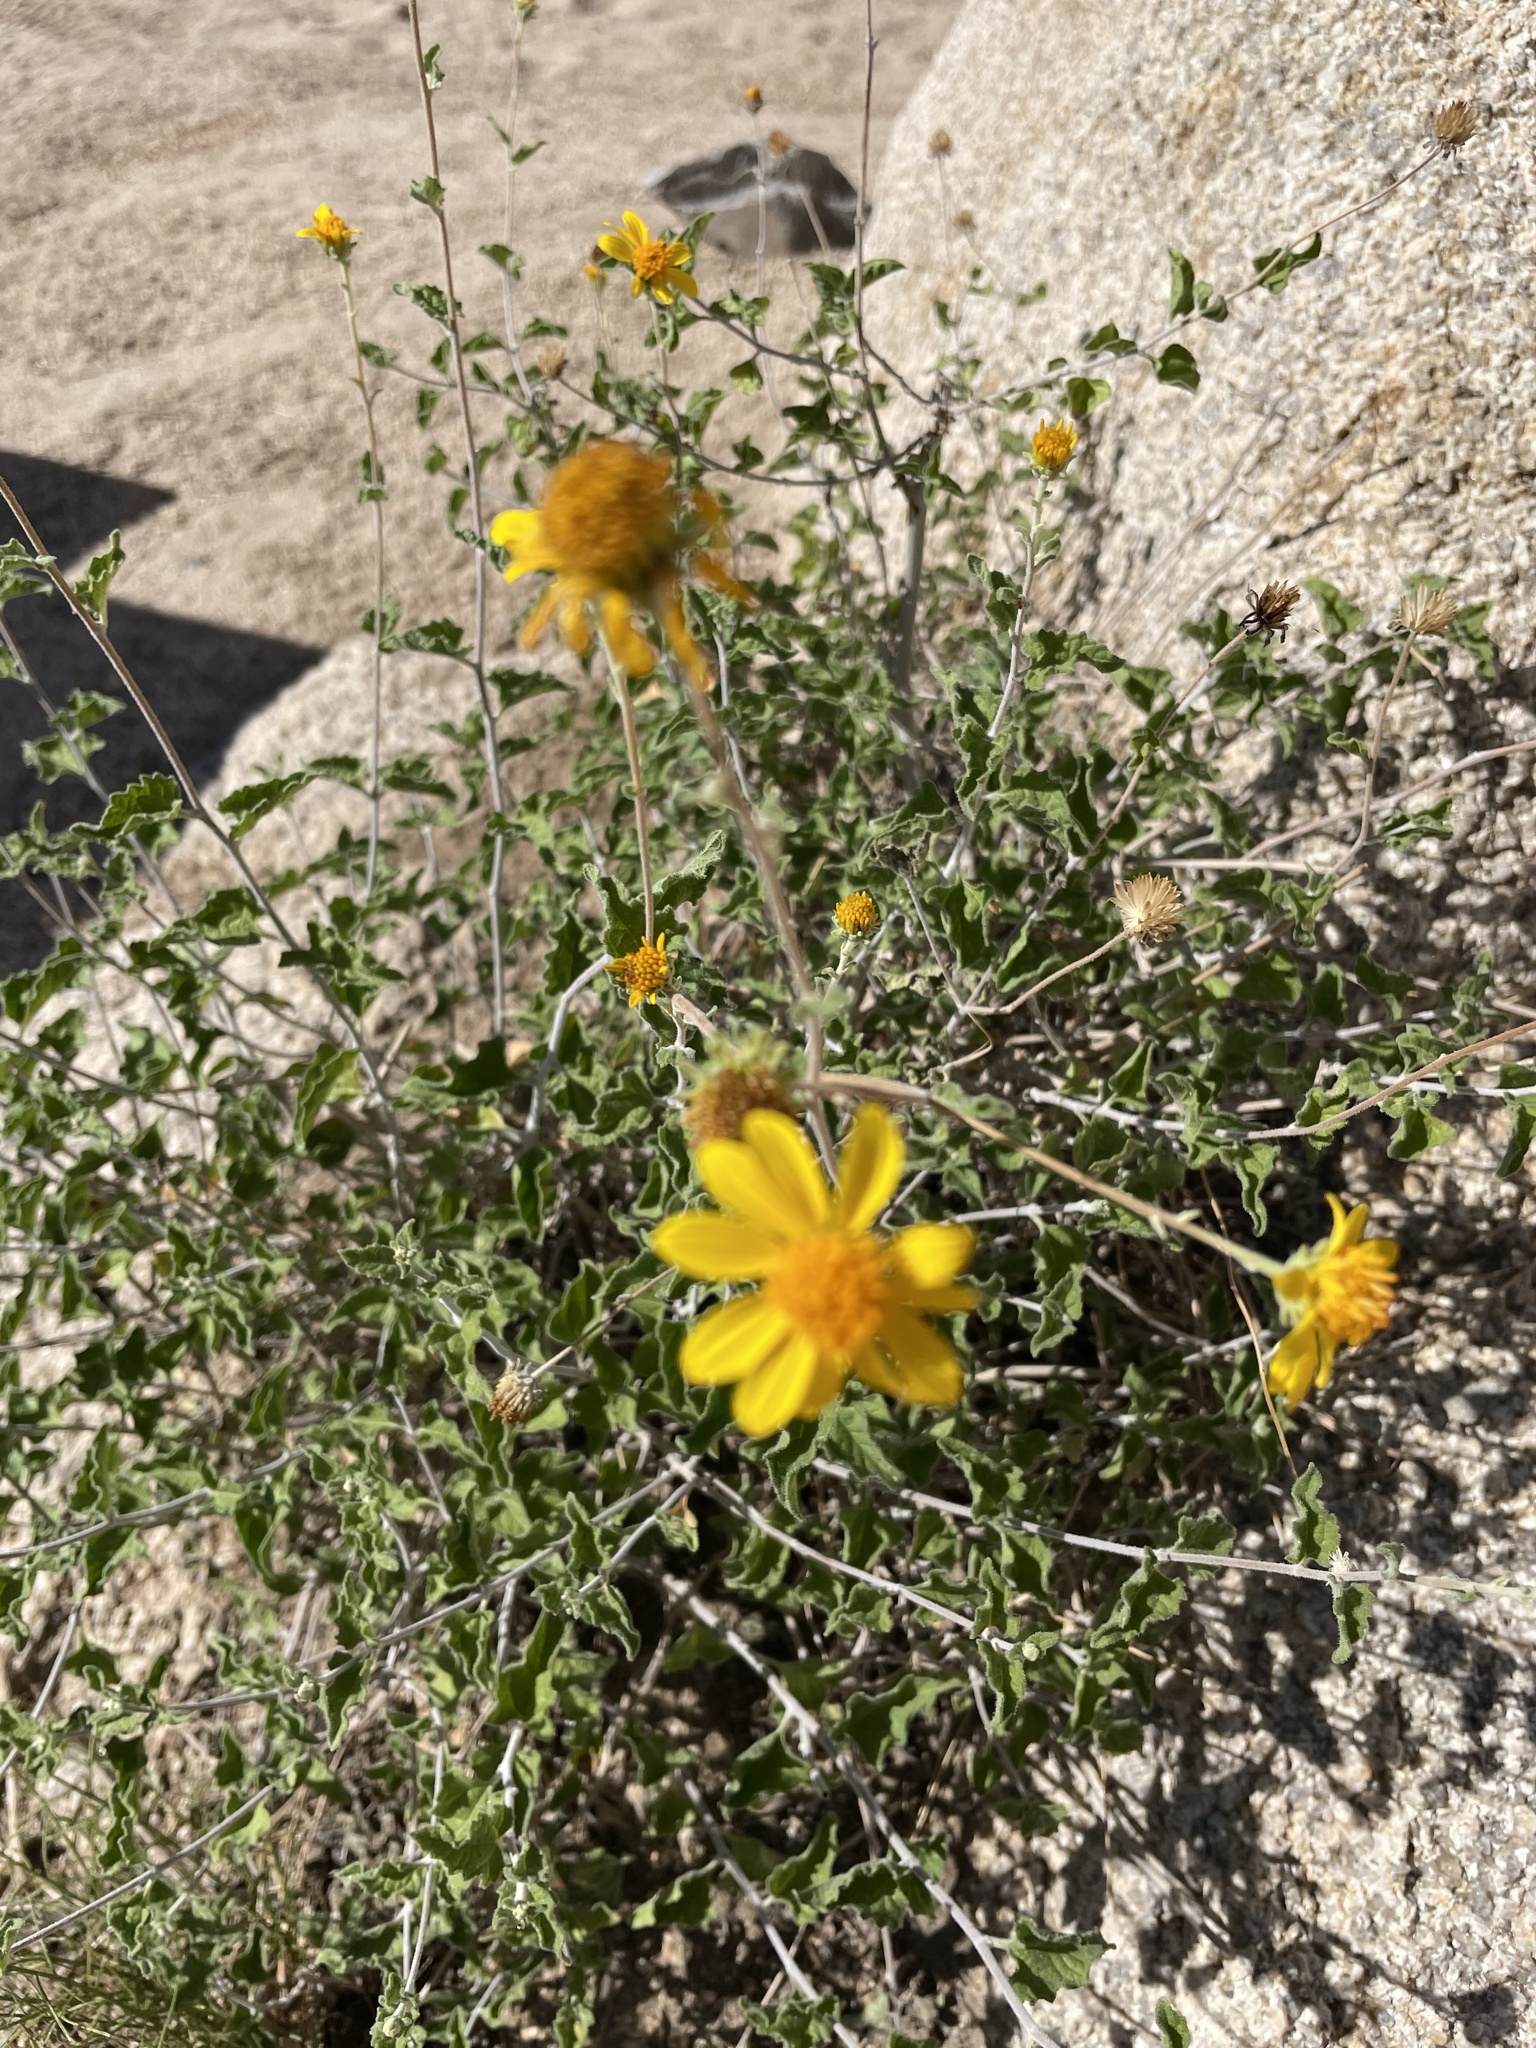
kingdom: Plantae
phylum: Tracheophyta
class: Magnoliopsida
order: Asterales
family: Asteraceae
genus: Bahiopsis
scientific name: Bahiopsis parishii
